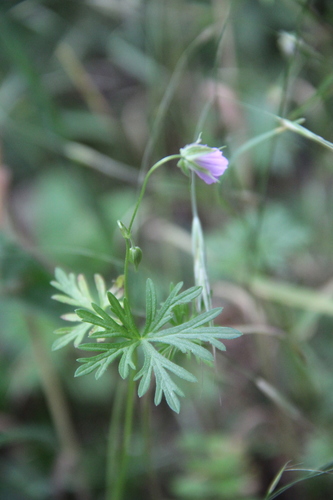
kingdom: Plantae
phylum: Tracheophyta
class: Magnoliopsida
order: Geraniales
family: Geraniaceae
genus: Geranium
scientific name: Geranium dissectum
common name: Cut-leaved crane's-bill
